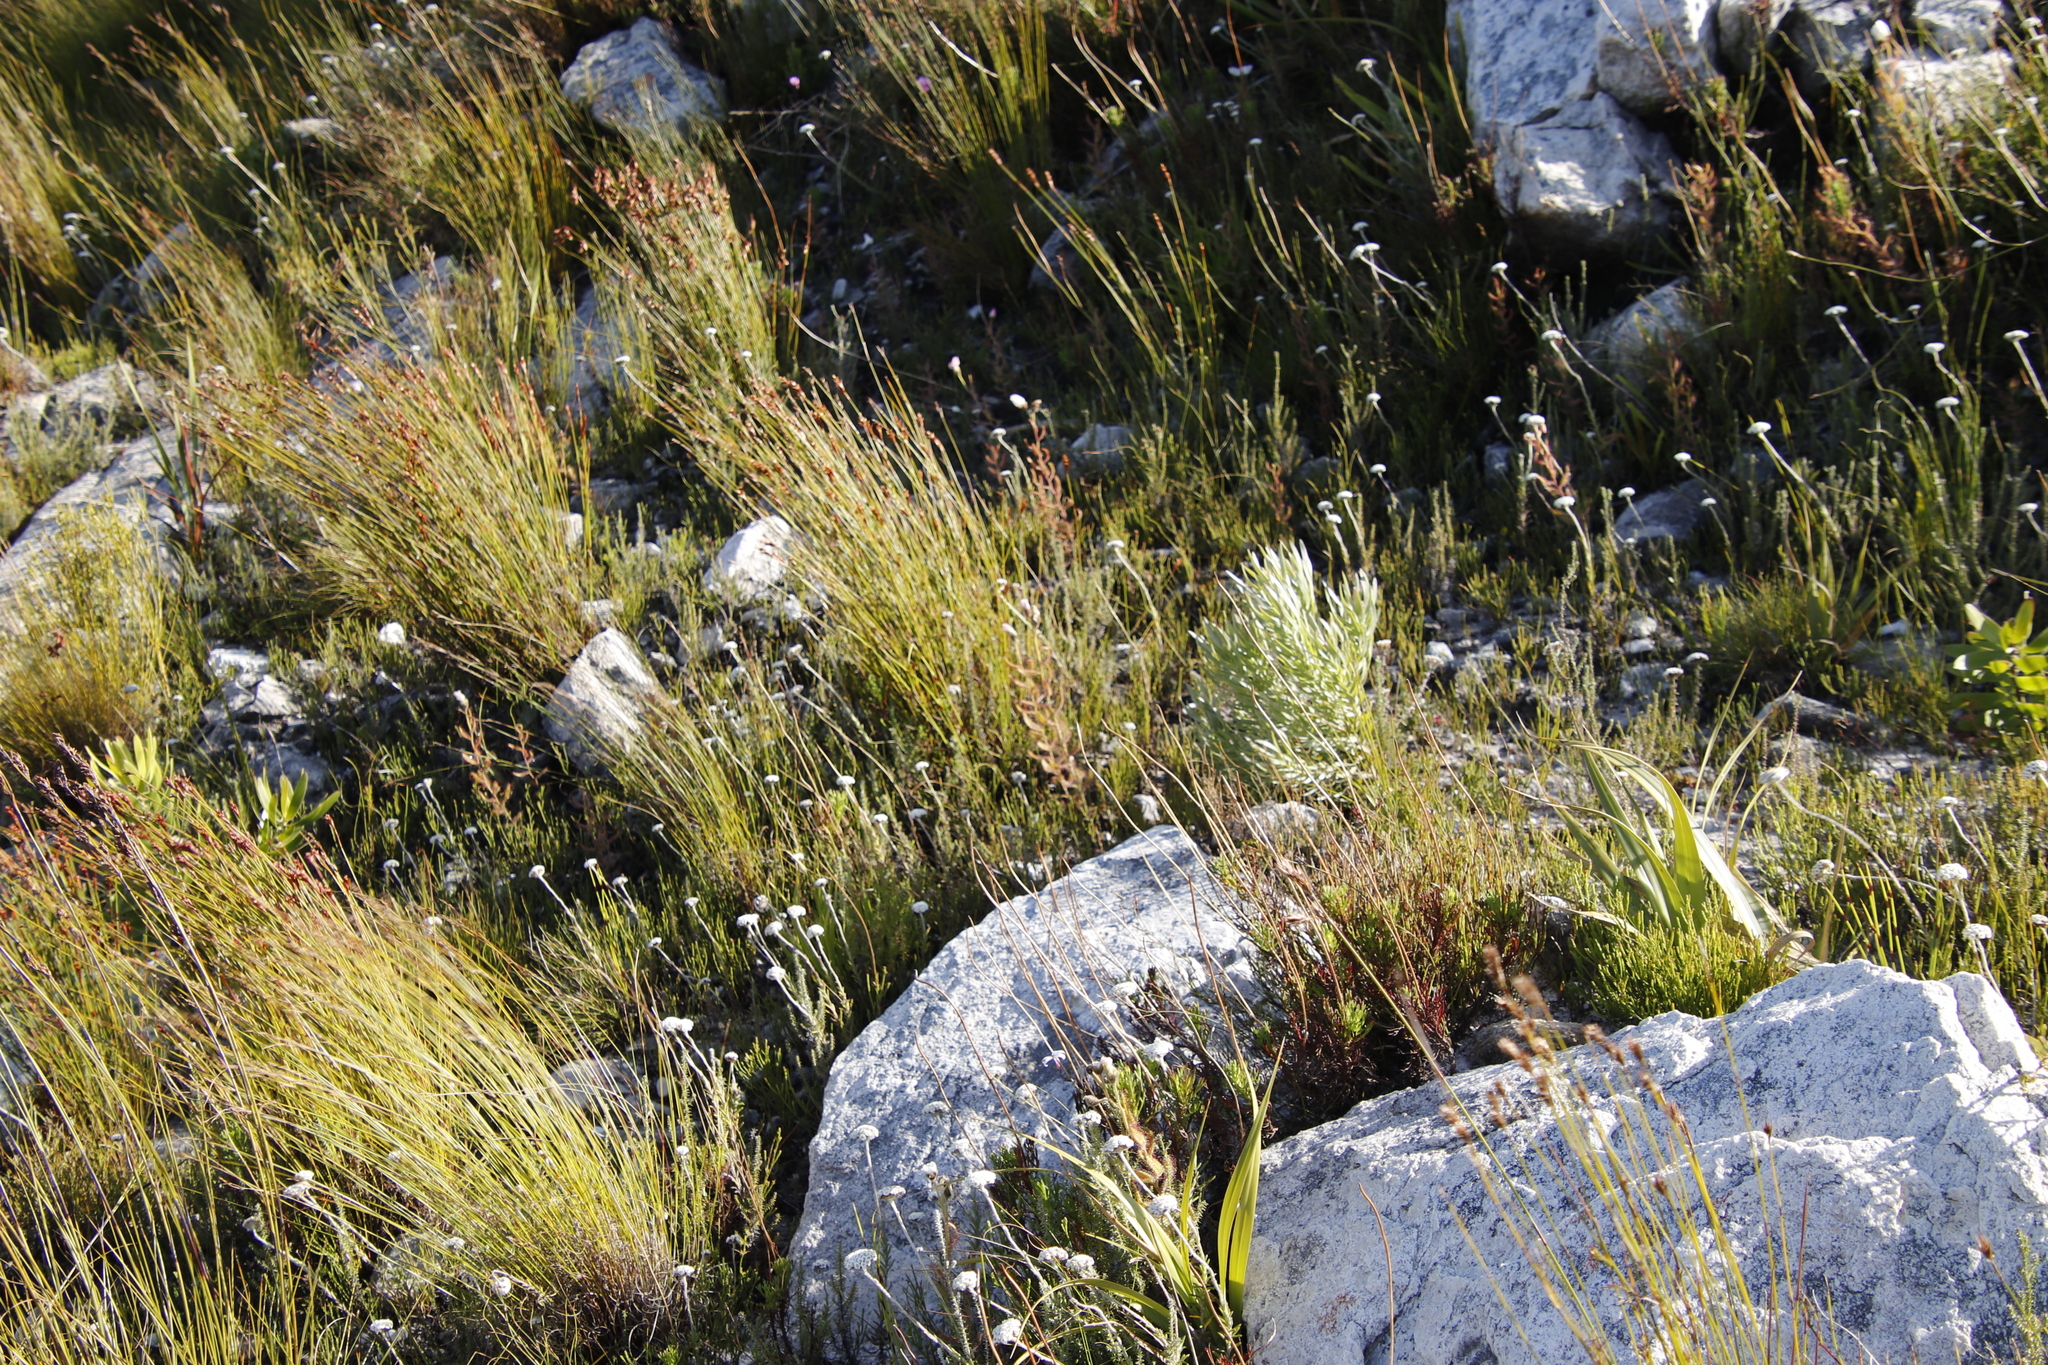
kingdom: Plantae
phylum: Tracheophyta
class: Magnoliopsida
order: Caryophyllales
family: Droseraceae
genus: Drosera
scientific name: Drosera cistiflora
